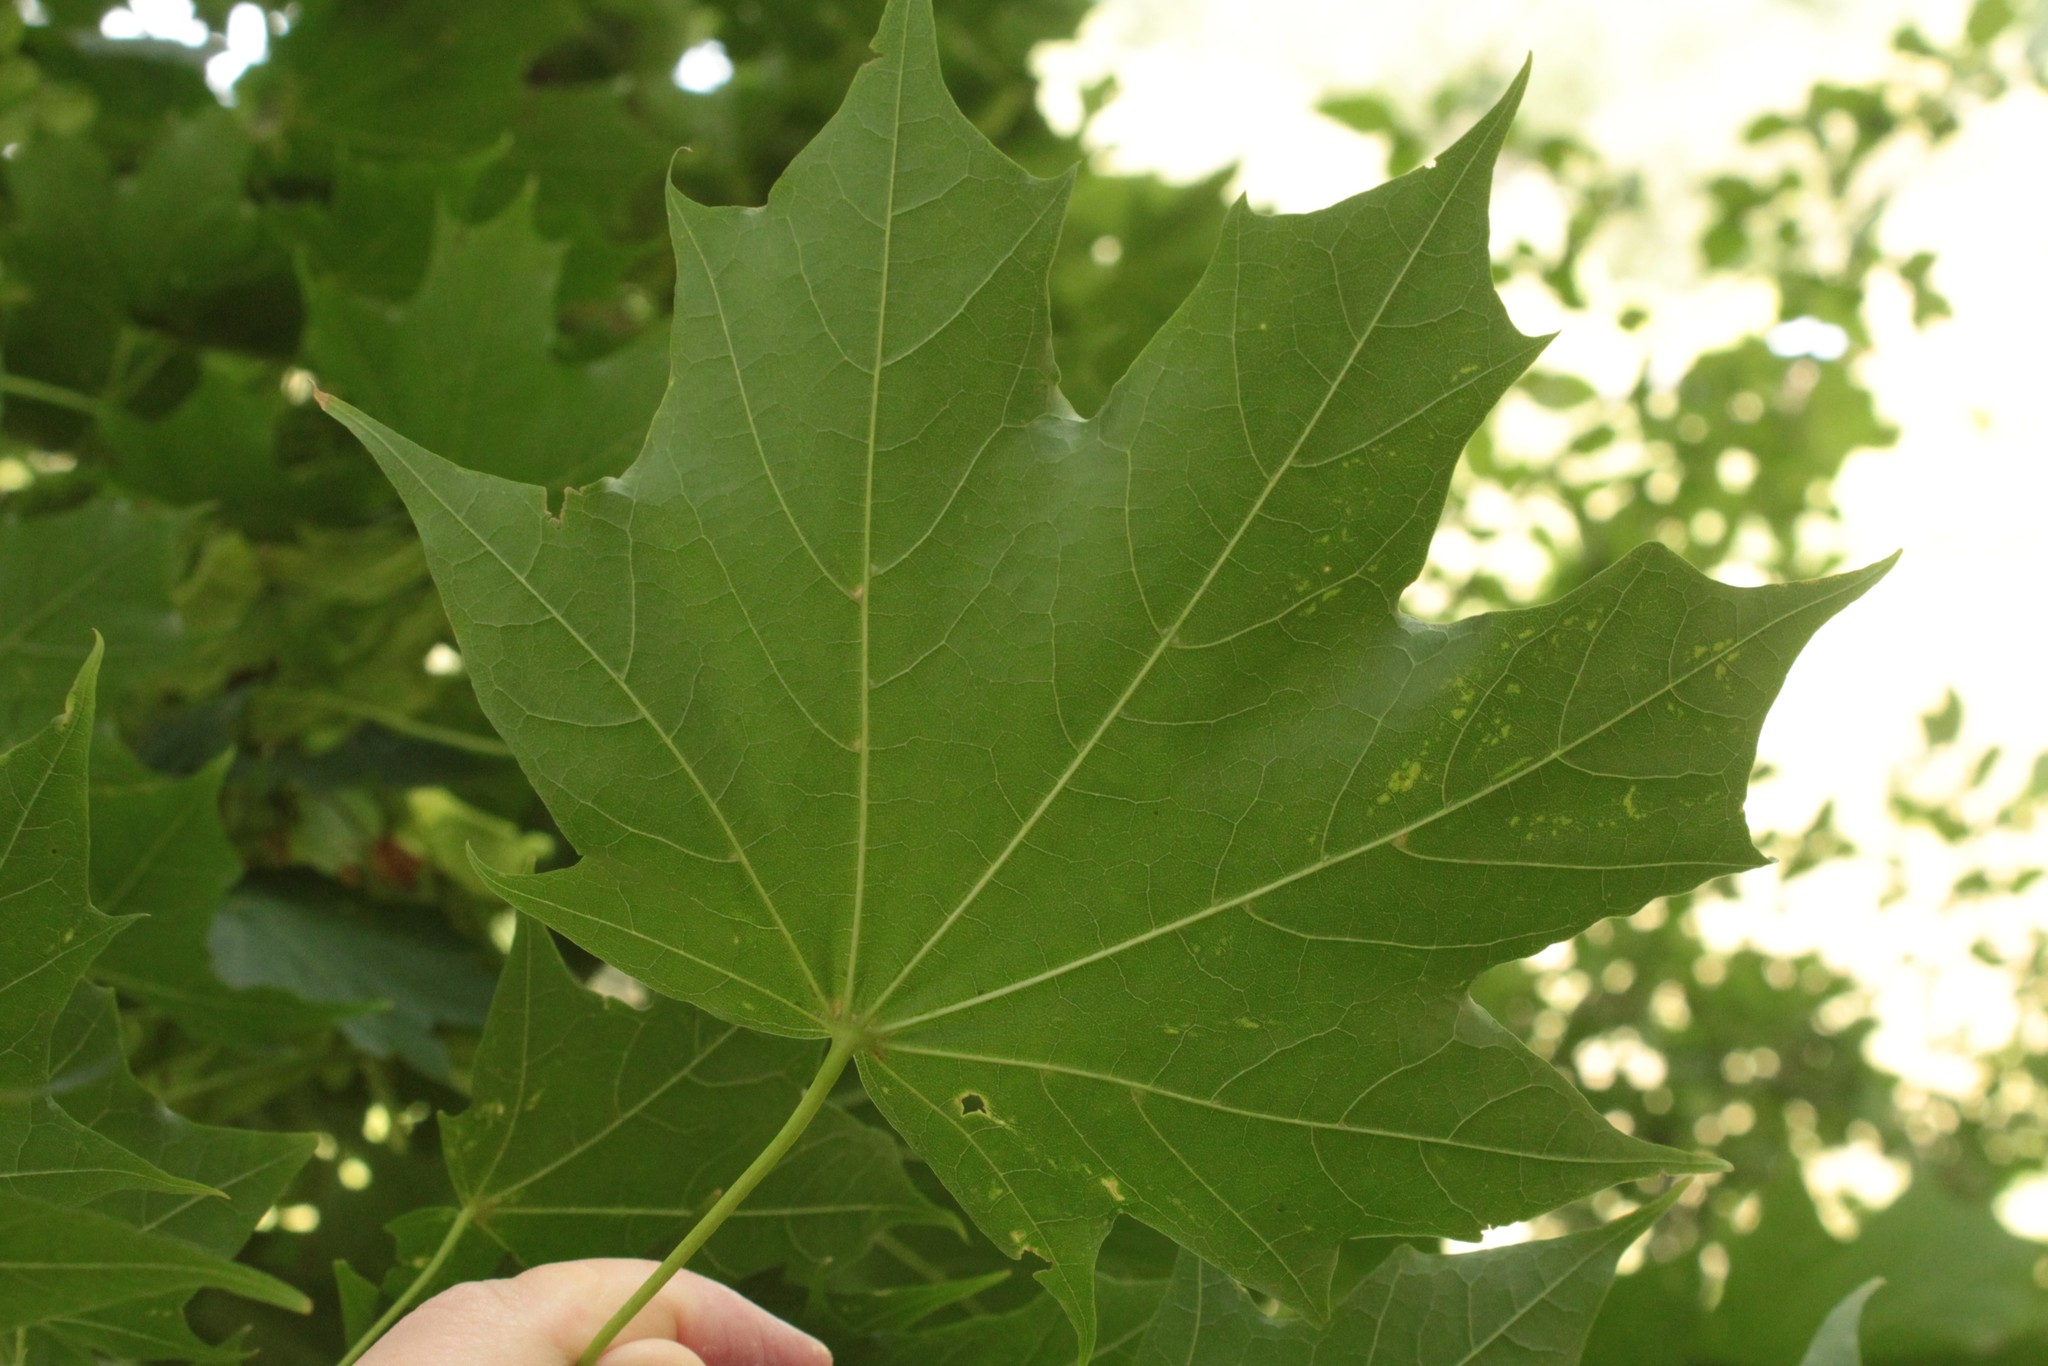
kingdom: Plantae
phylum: Tracheophyta
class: Magnoliopsida
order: Sapindales
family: Sapindaceae
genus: Acer
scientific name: Acer platanoides
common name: Norway maple
